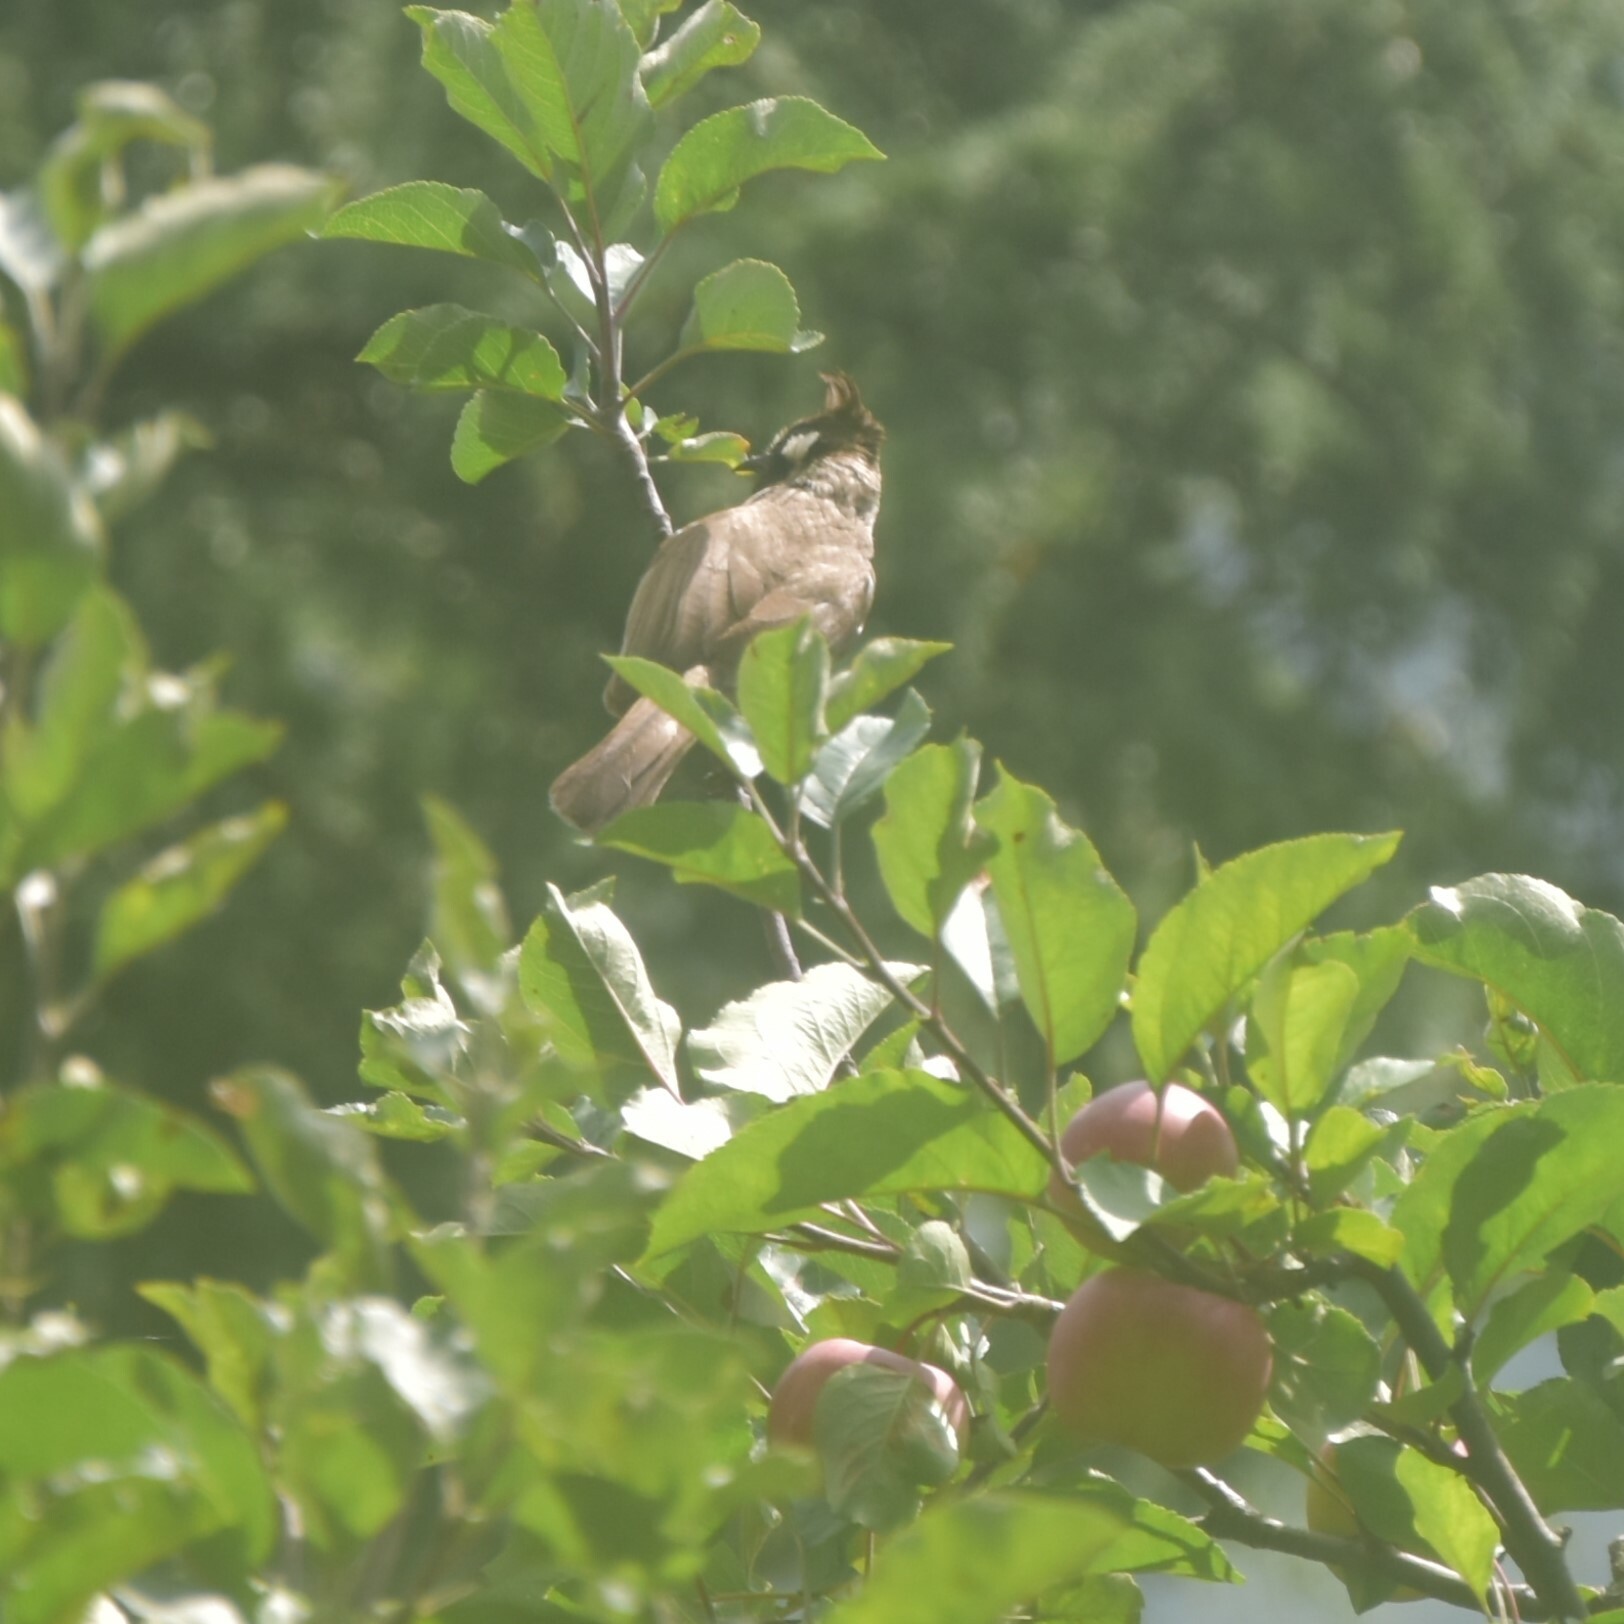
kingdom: Animalia
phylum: Chordata
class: Aves
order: Passeriformes
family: Pycnonotidae
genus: Pycnonotus
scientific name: Pycnonotus leucogenys
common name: Himalayan bulbul
